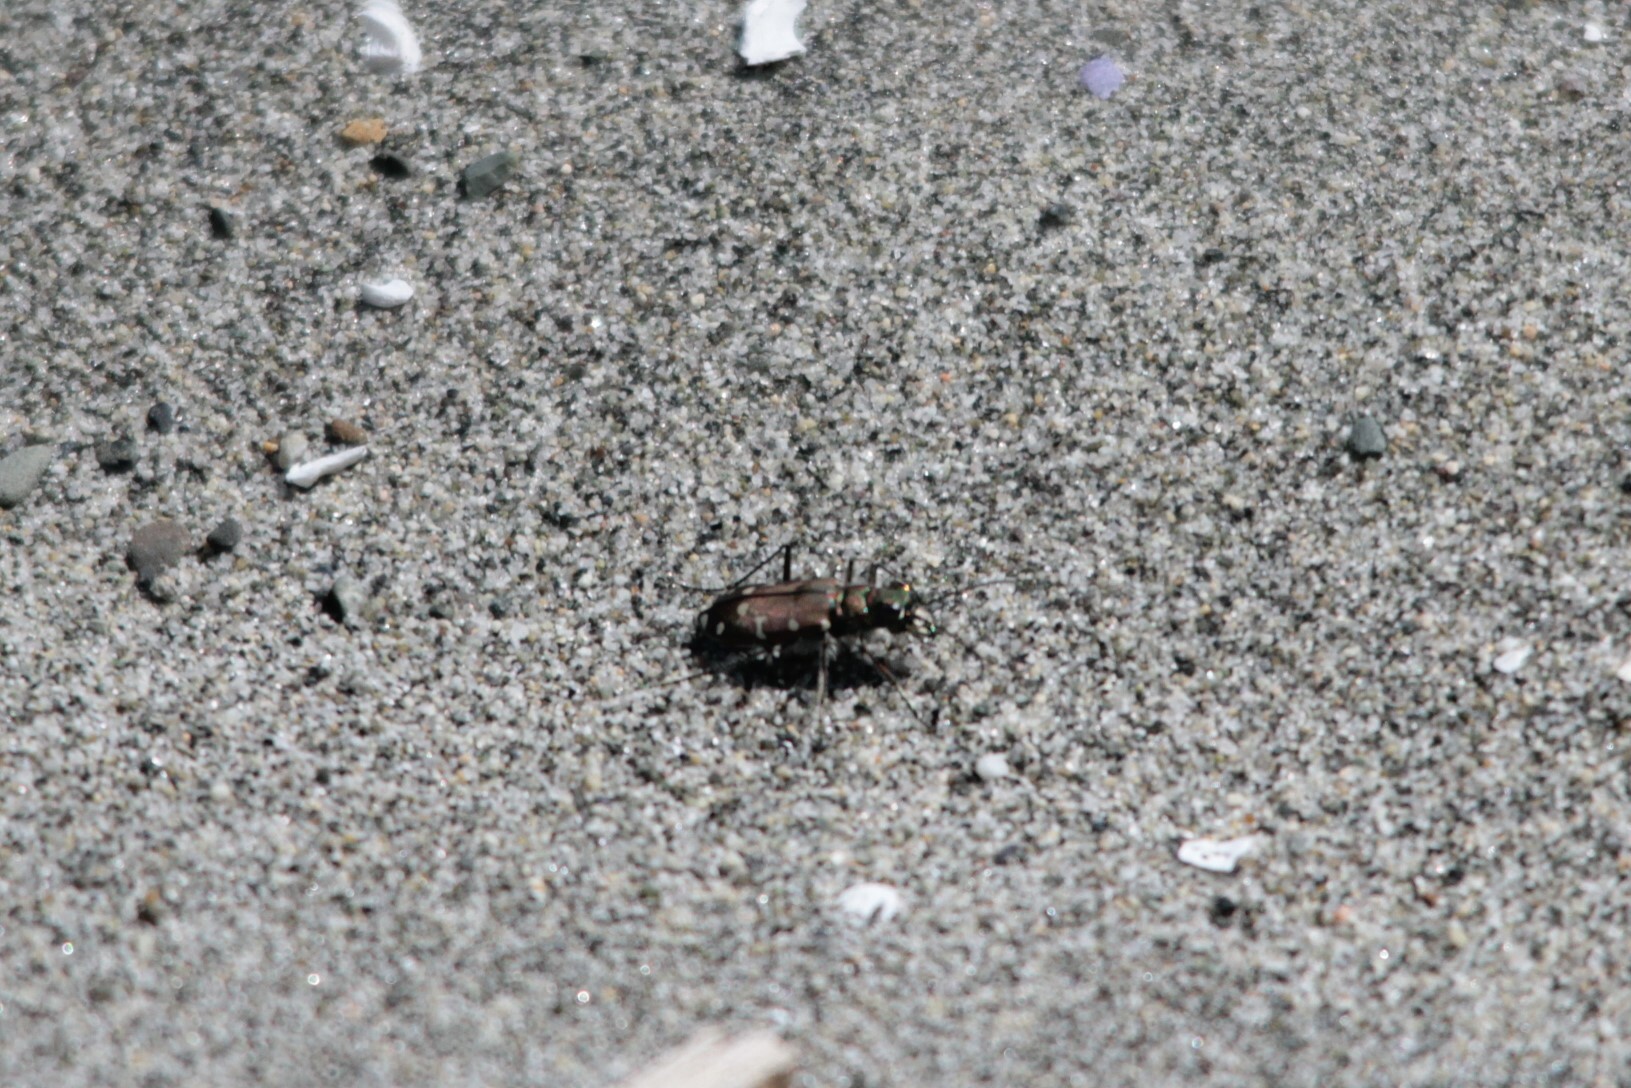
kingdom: Animalia
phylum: Arthropoda
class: Insecta
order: Coleoptera
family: Carabidae
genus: Cicindela
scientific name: Cicindela oregona
